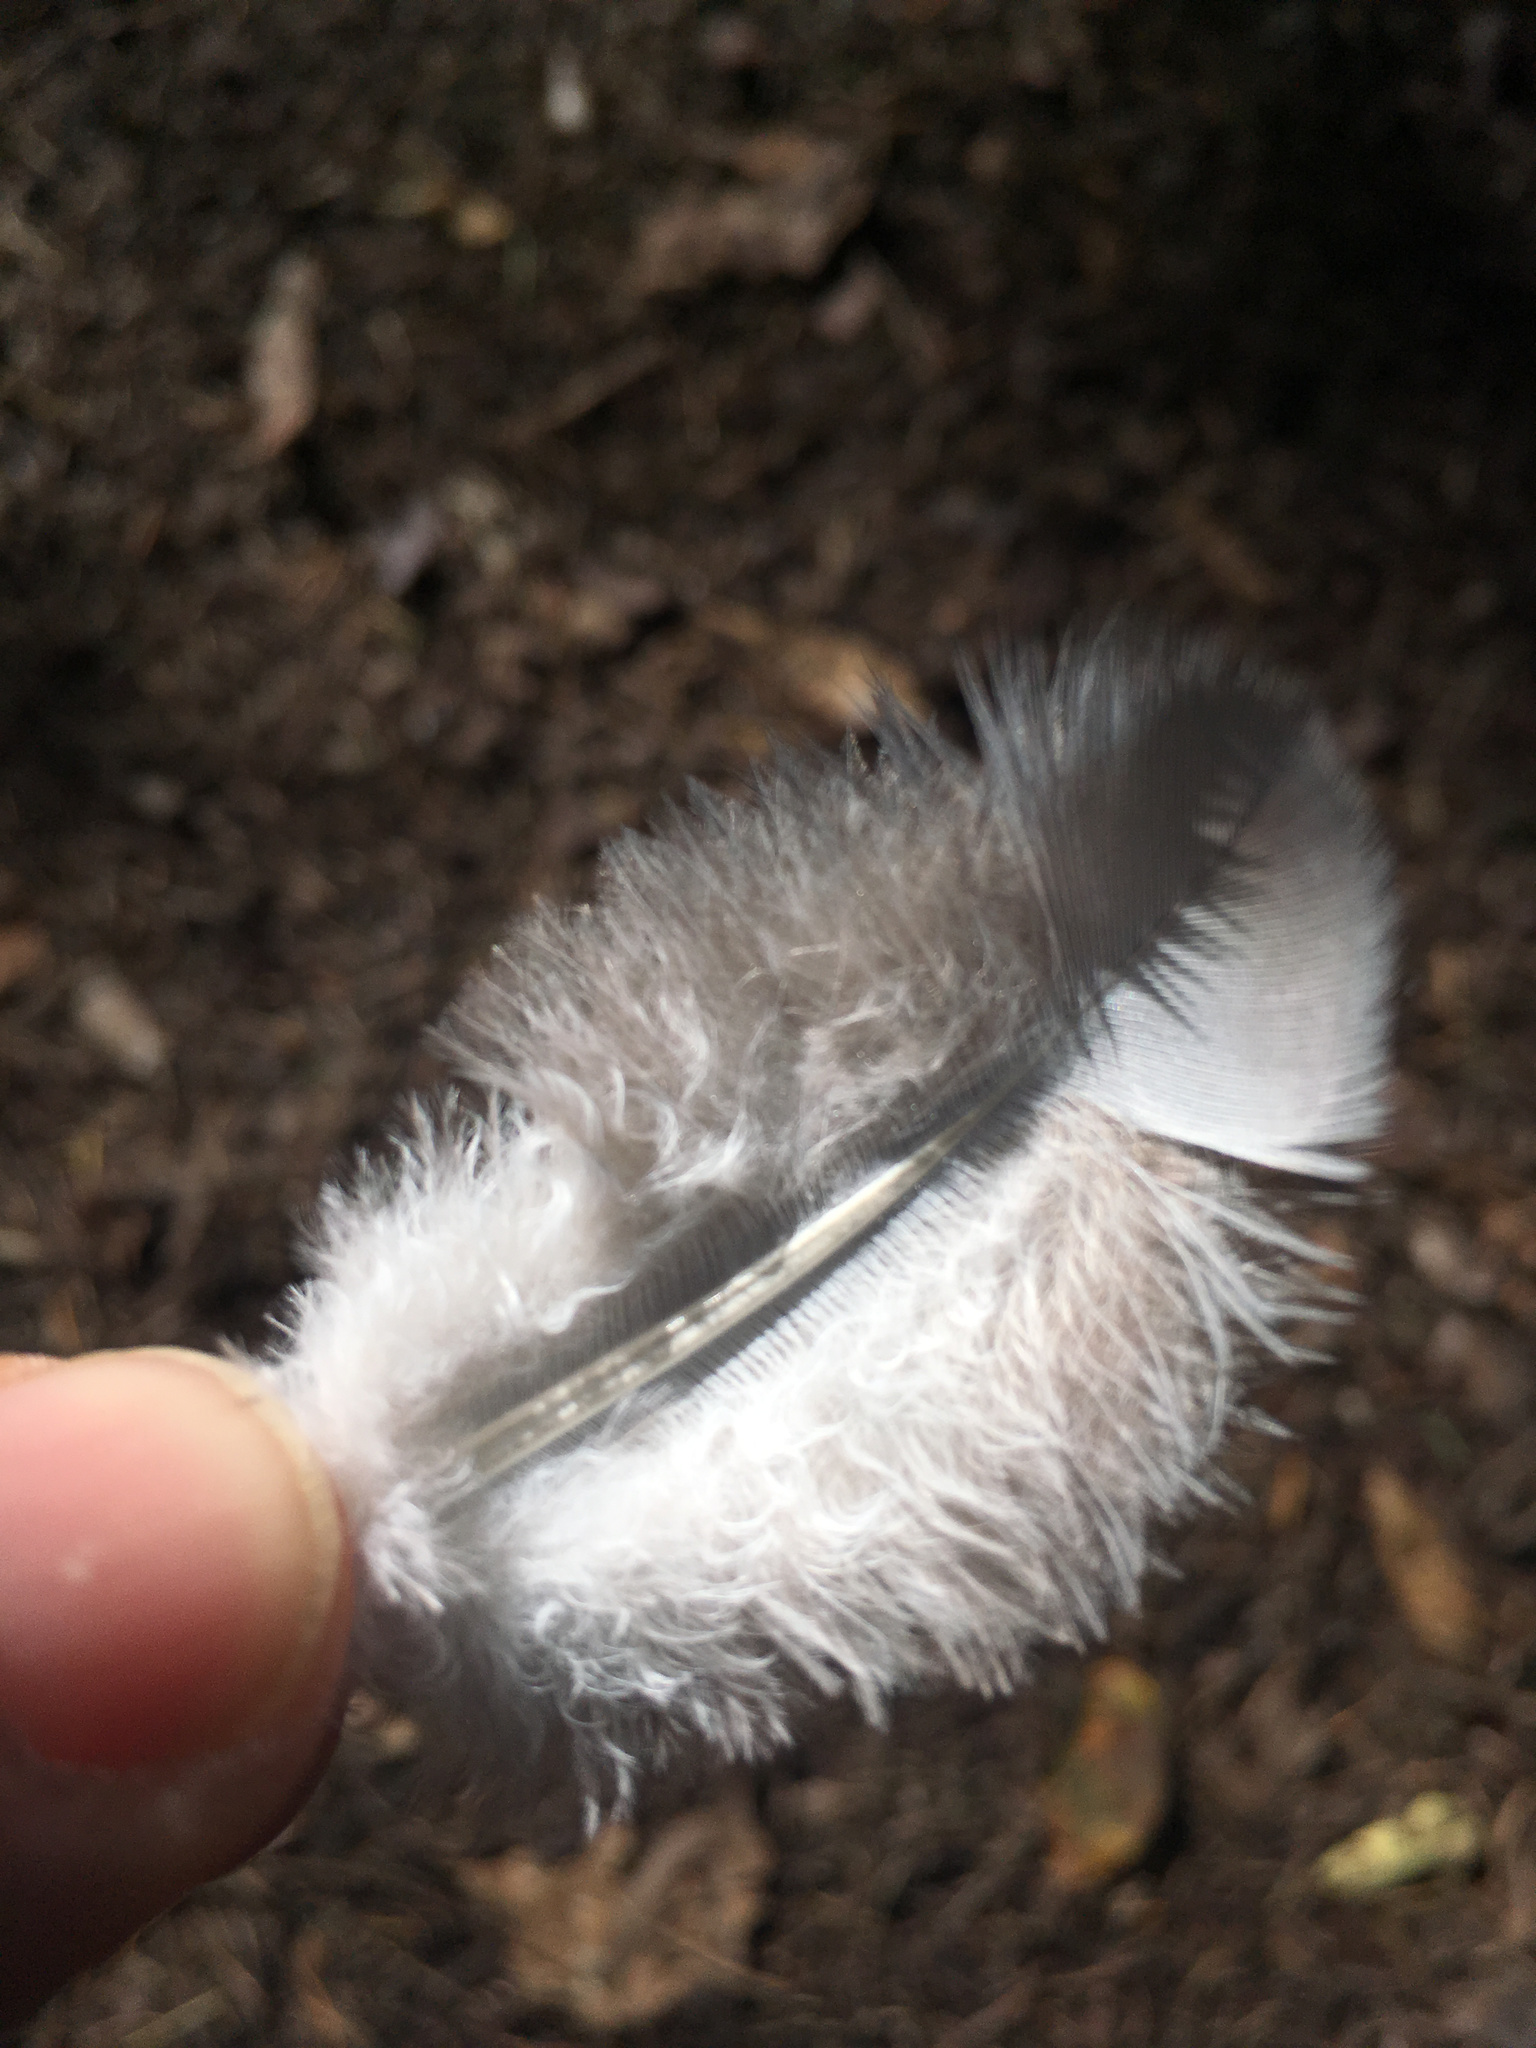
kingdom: Animalia
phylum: Chordata
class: Aves
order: Columbiformes
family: Columbidae
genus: Hemiphaga
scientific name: Hemiphaga novaeseelandiae
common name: New zealand pigeon
